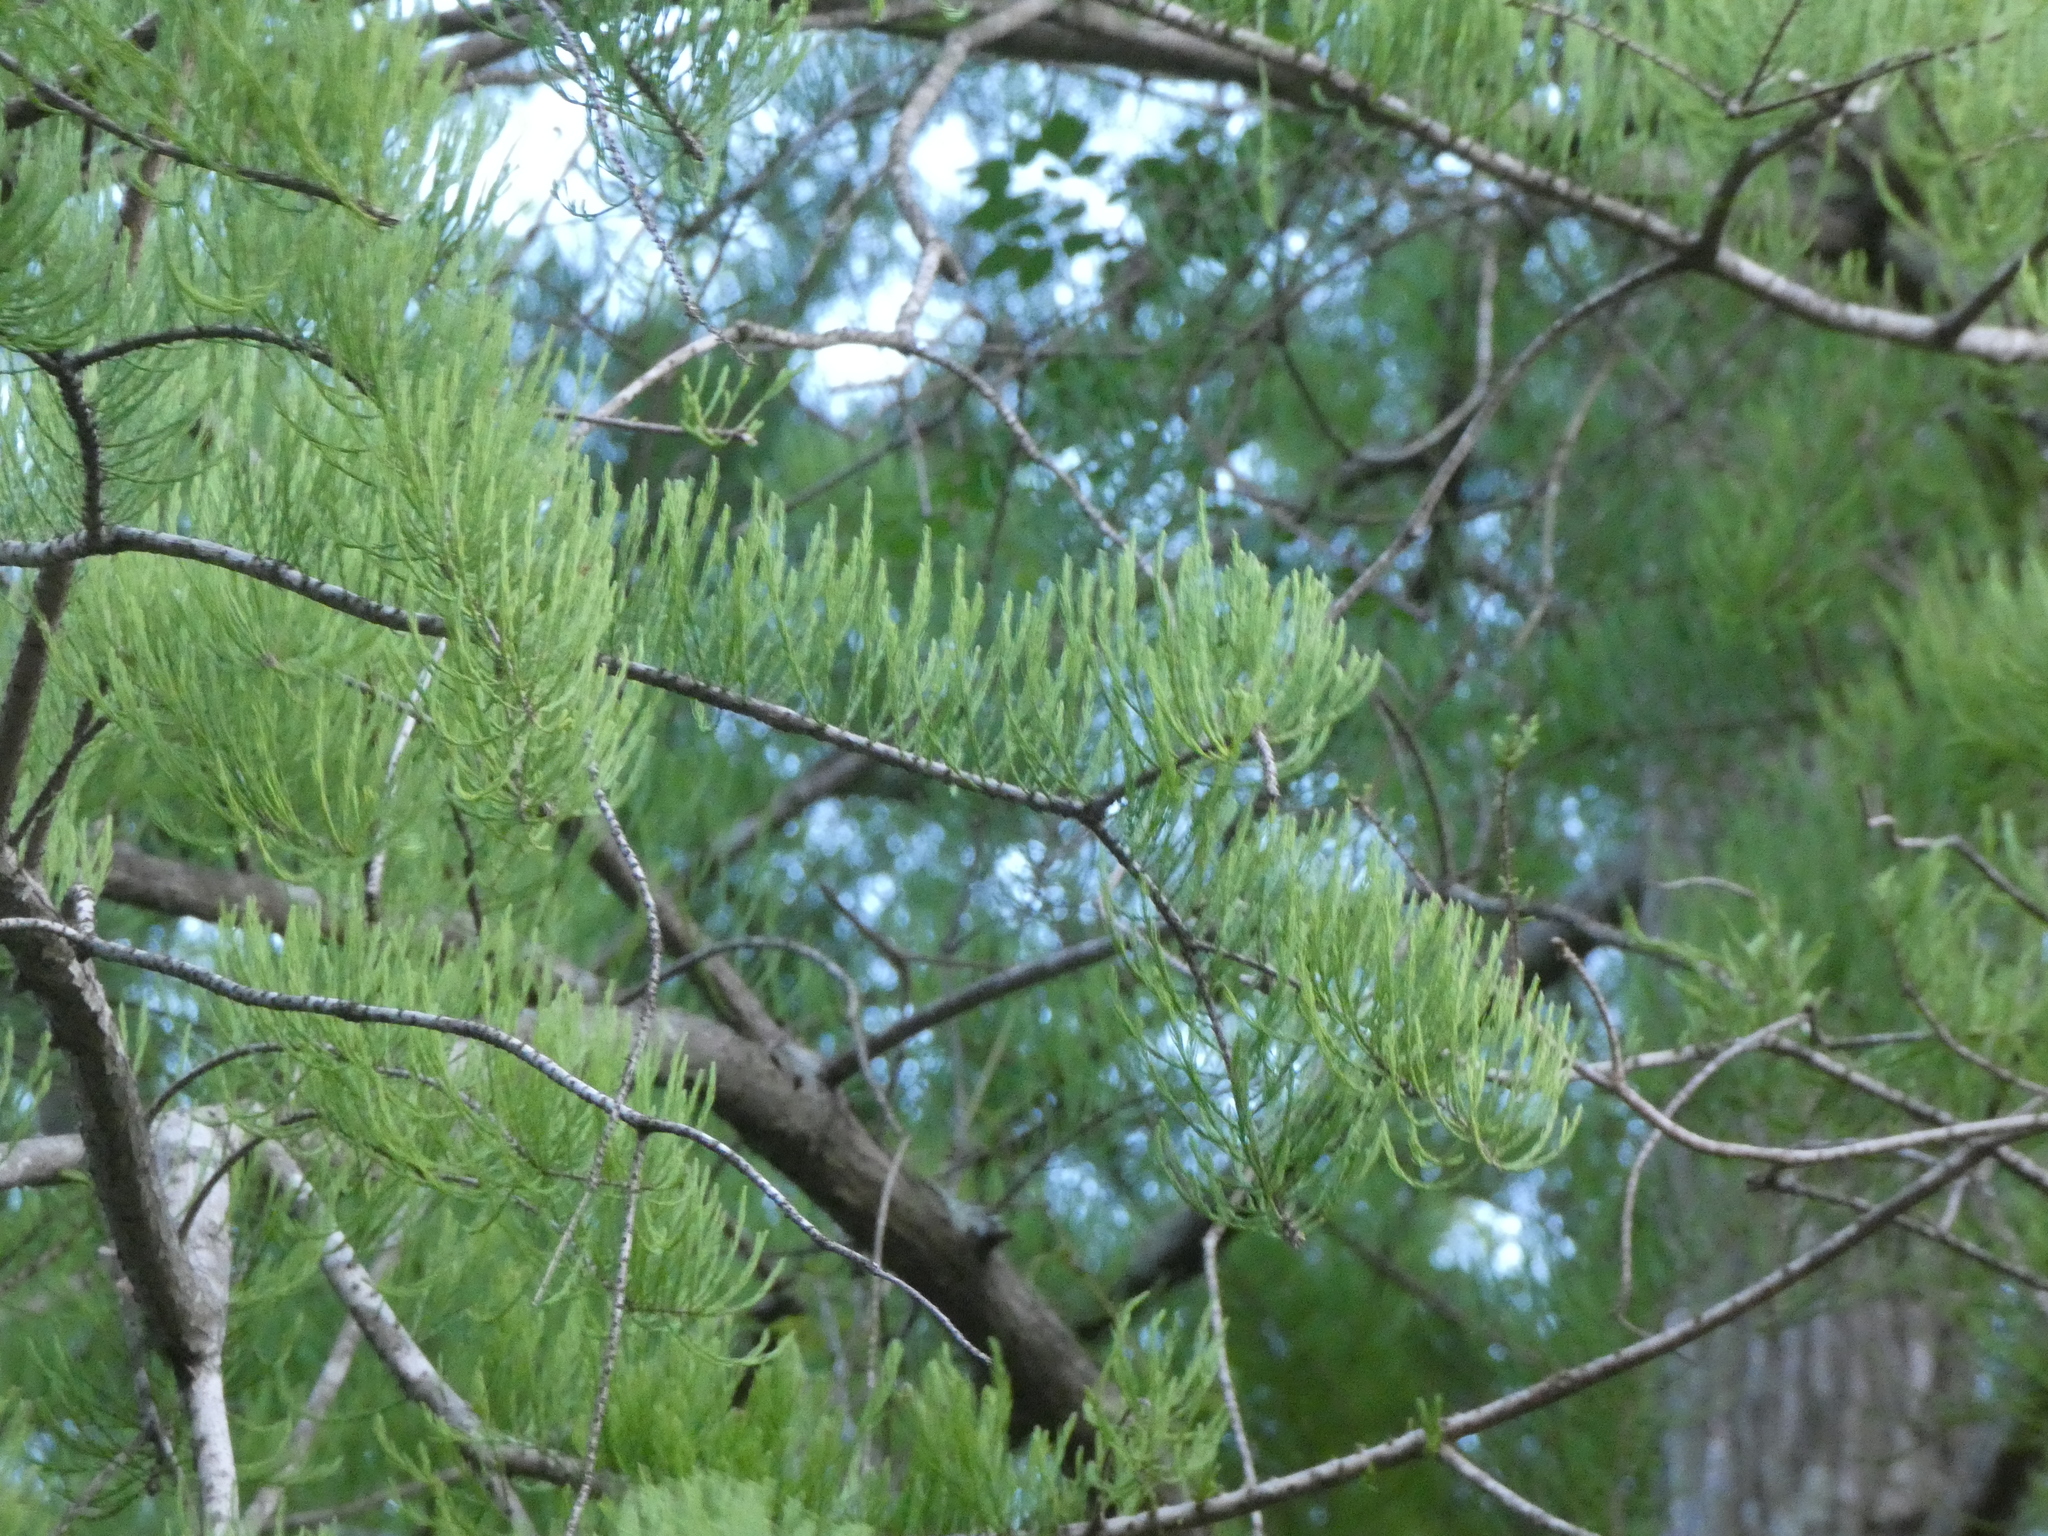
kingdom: Plantae
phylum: Tracheophyta
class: Pinopsida
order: Pinales
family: Cupressaceae
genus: Taxodium
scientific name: Taxodium distichum
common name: Bald cypress
